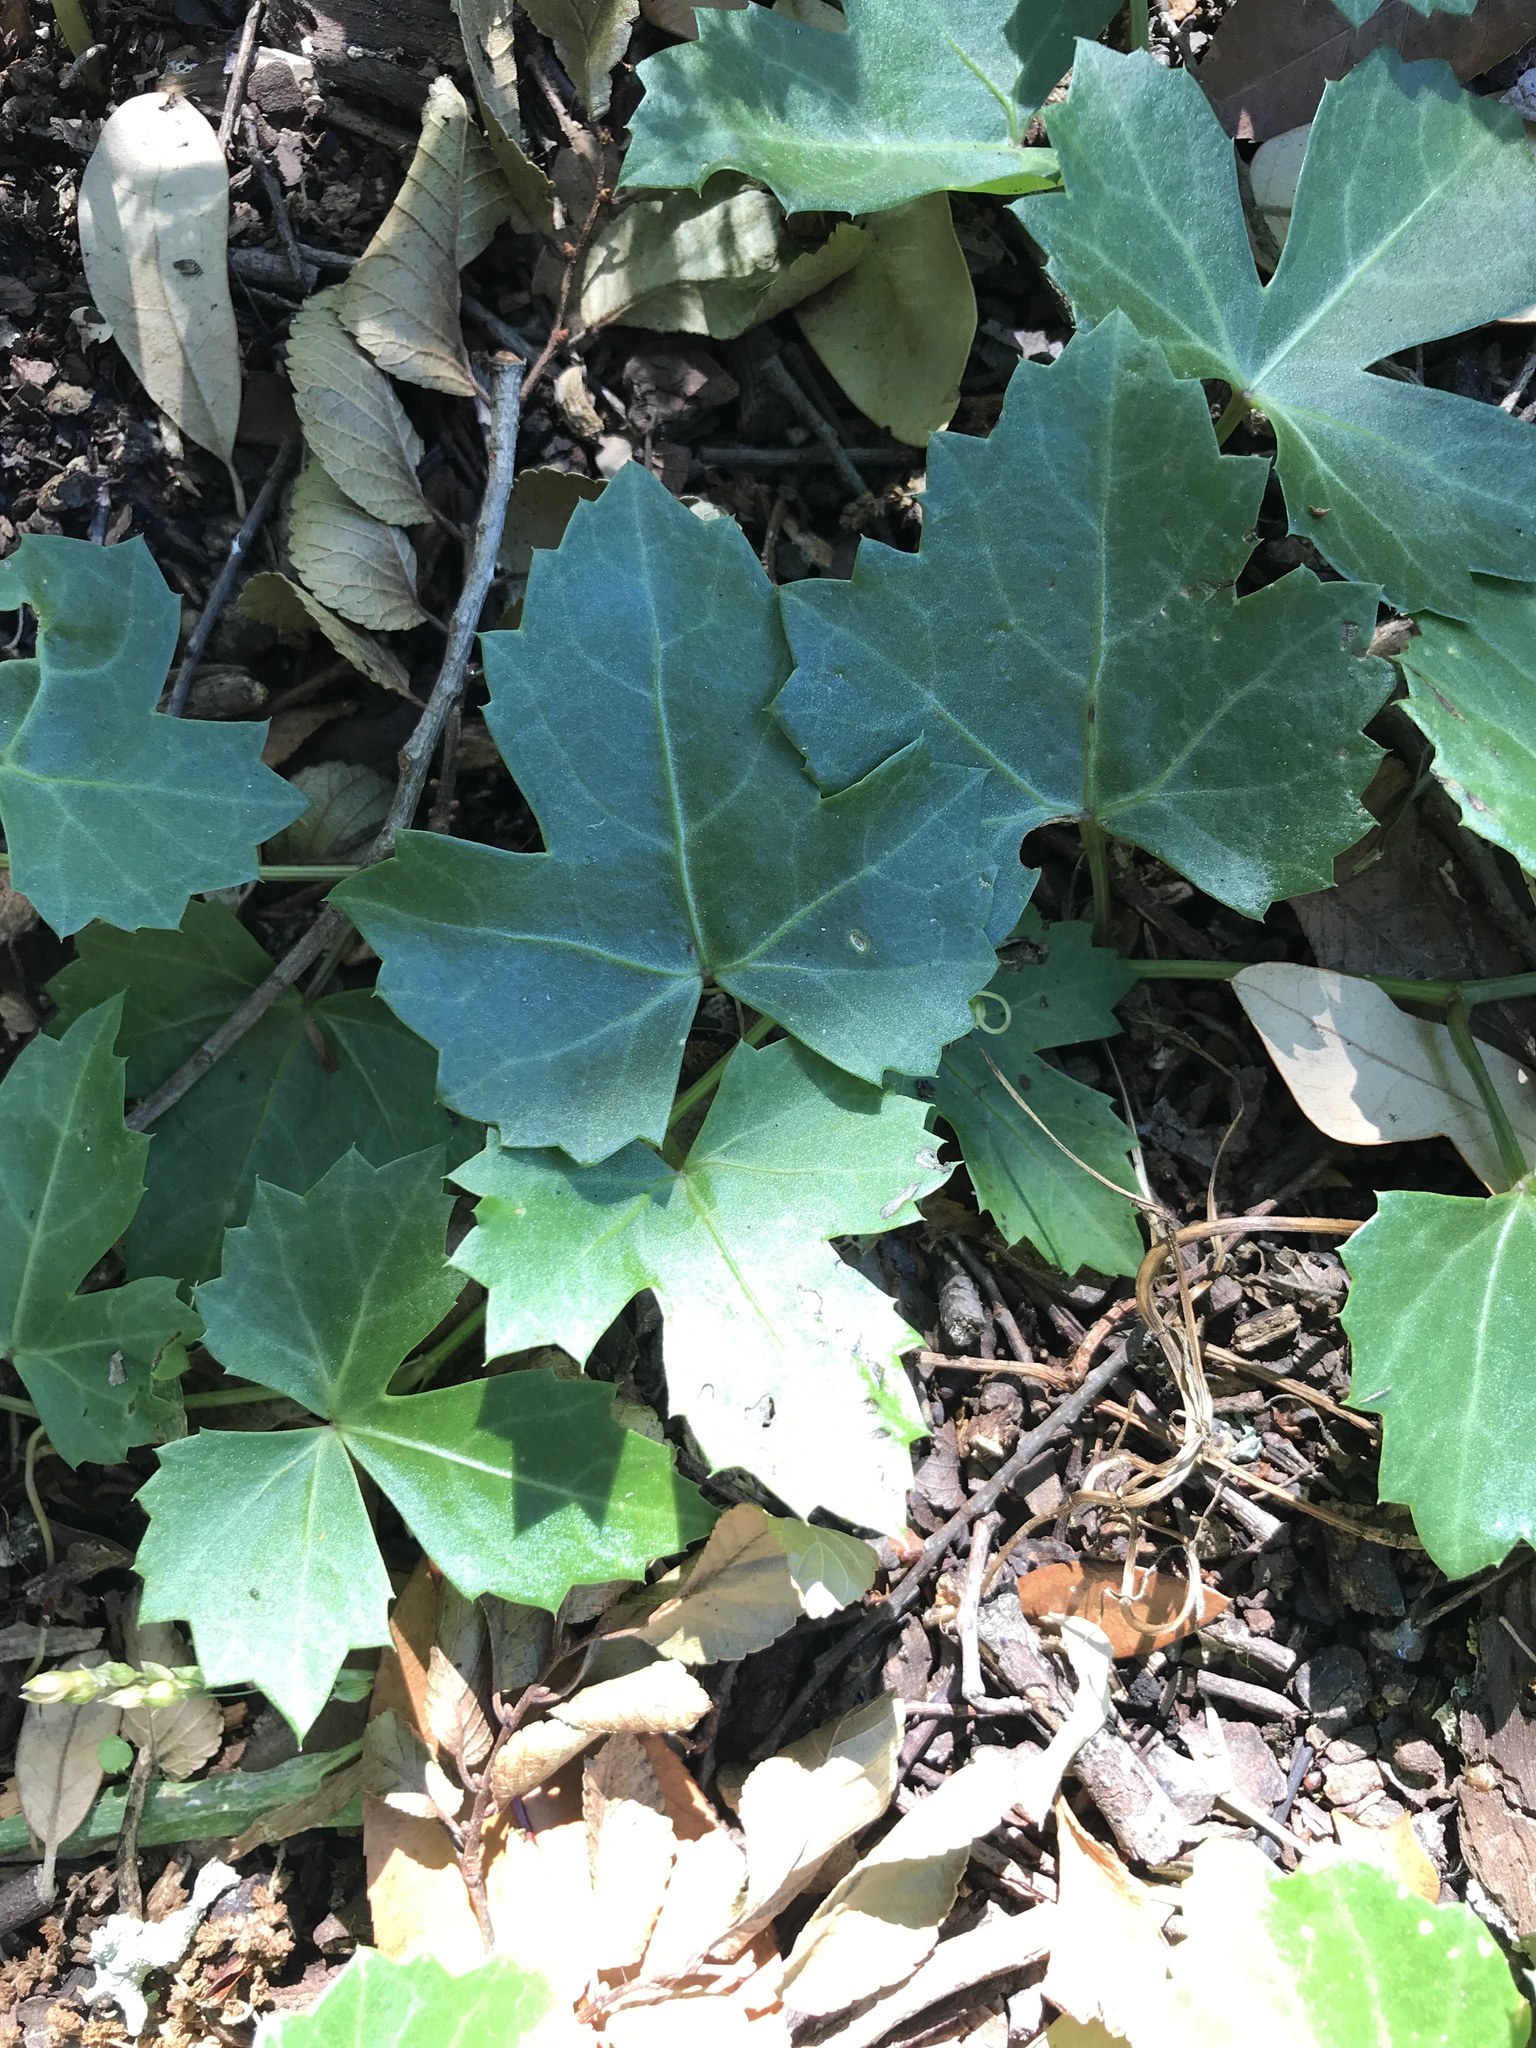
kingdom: Plantae
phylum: Tracheophyta
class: Magnoliopsida
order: Vitales
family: Vitaceae
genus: Cissus
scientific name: Cissus trifoliata
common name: Vine-sorrel
